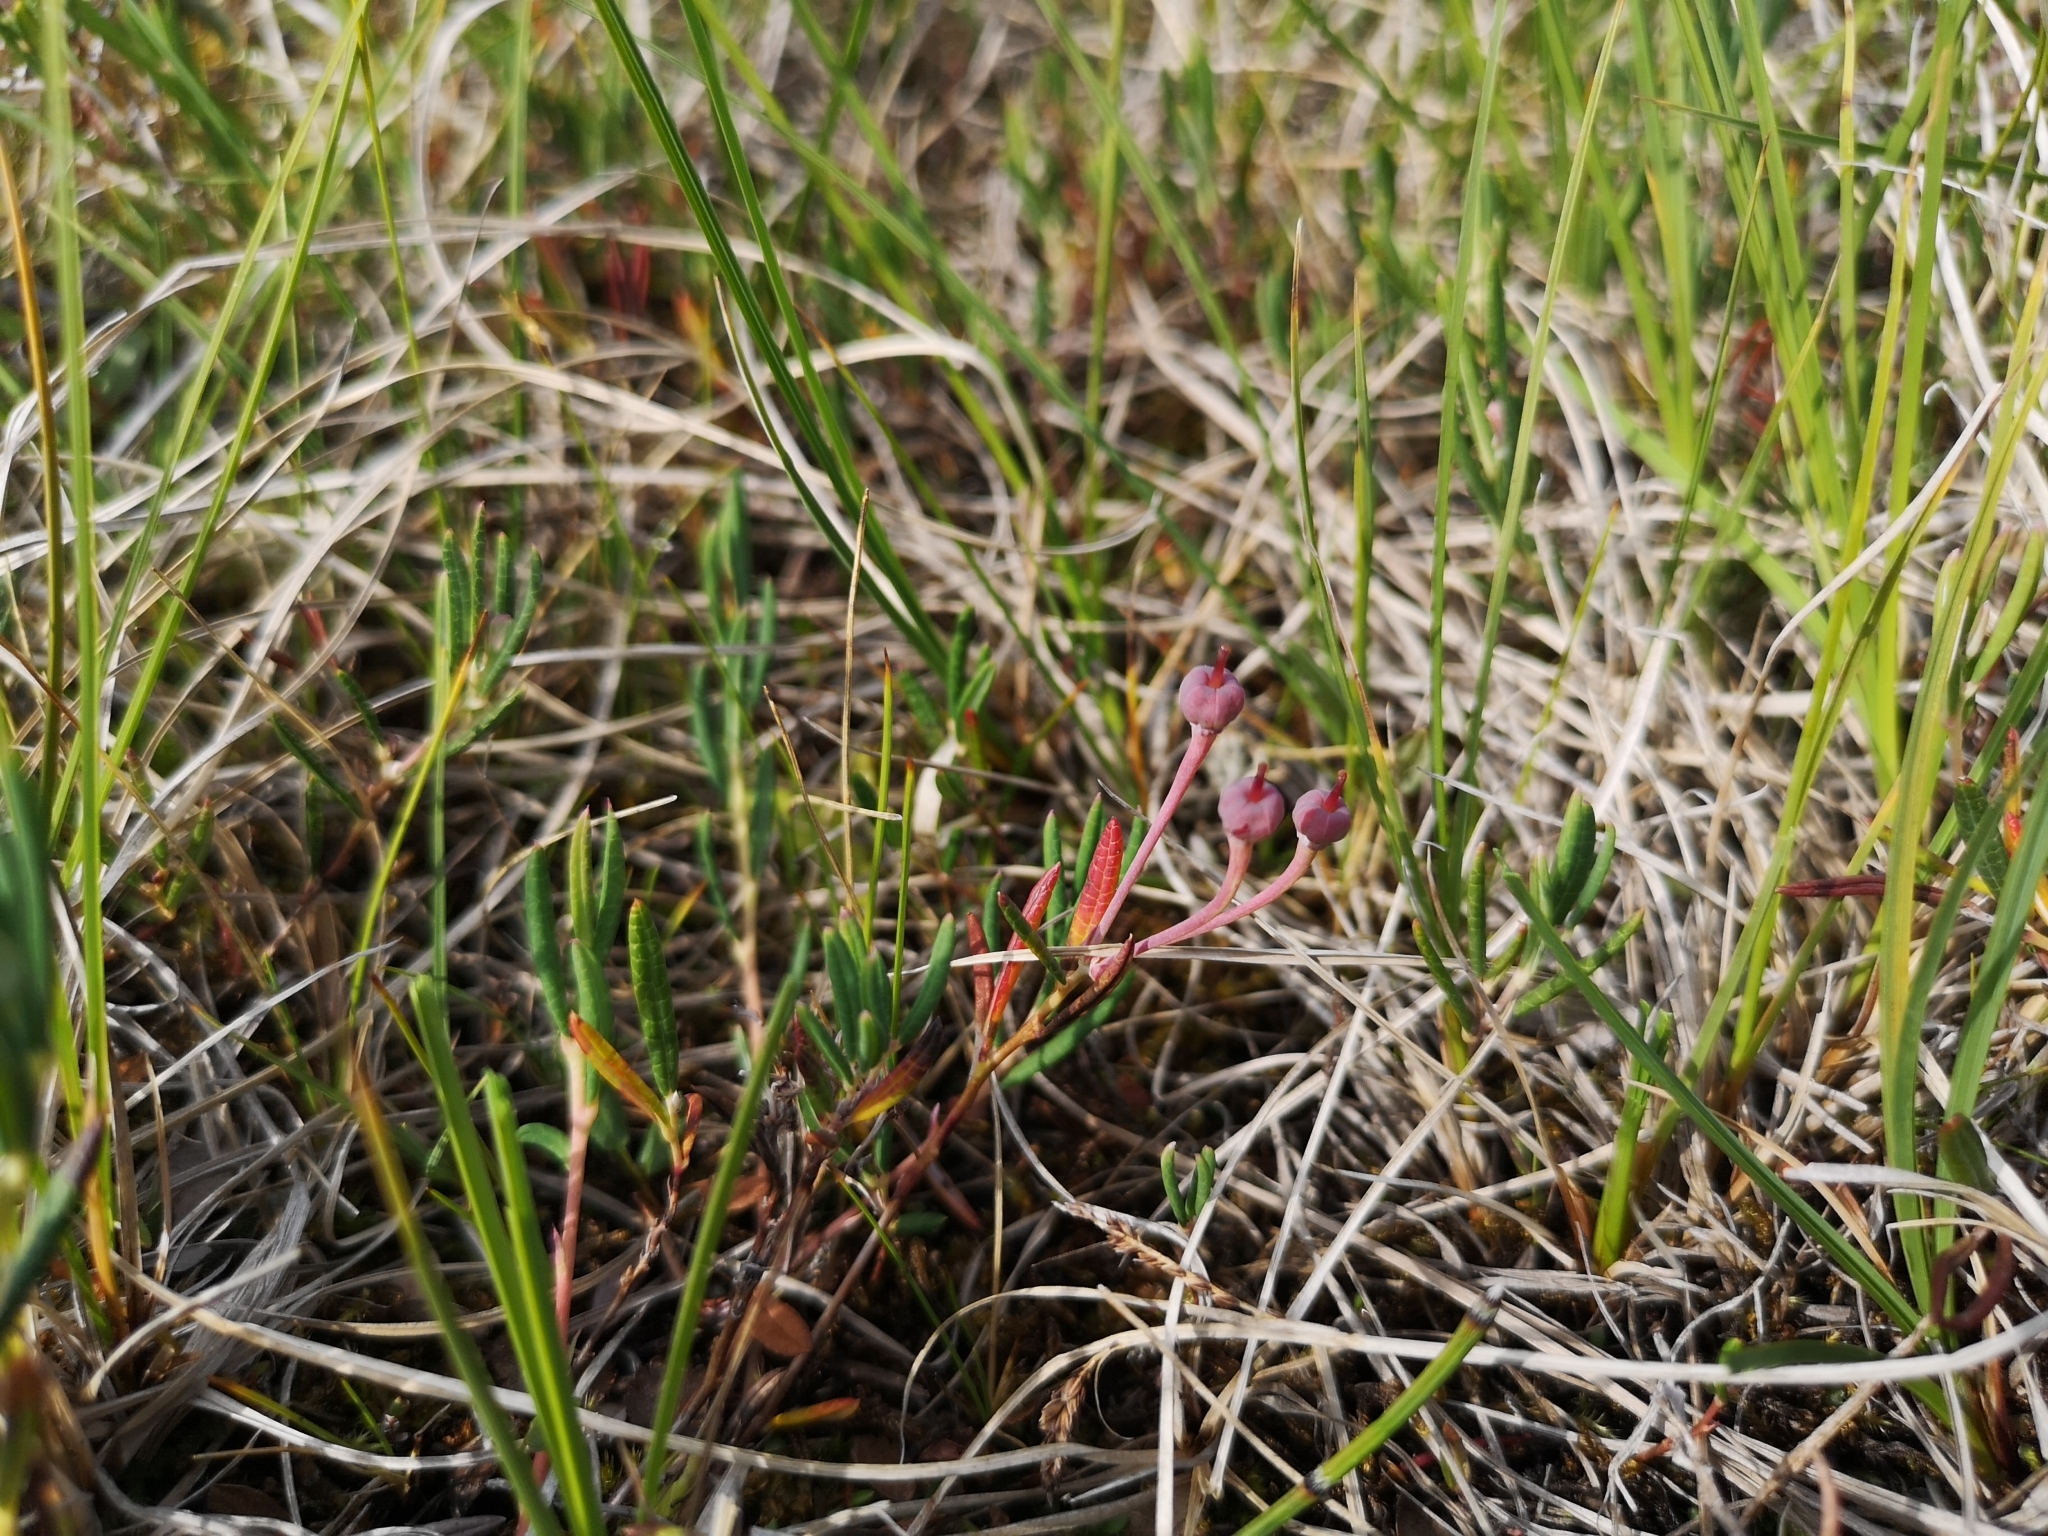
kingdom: Plantae
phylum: Tracheophyta
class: Magnoliopsida
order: Ericales
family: Ericaceae
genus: Andromeda
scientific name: Andromeda polifolia
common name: Bog-rosemary
